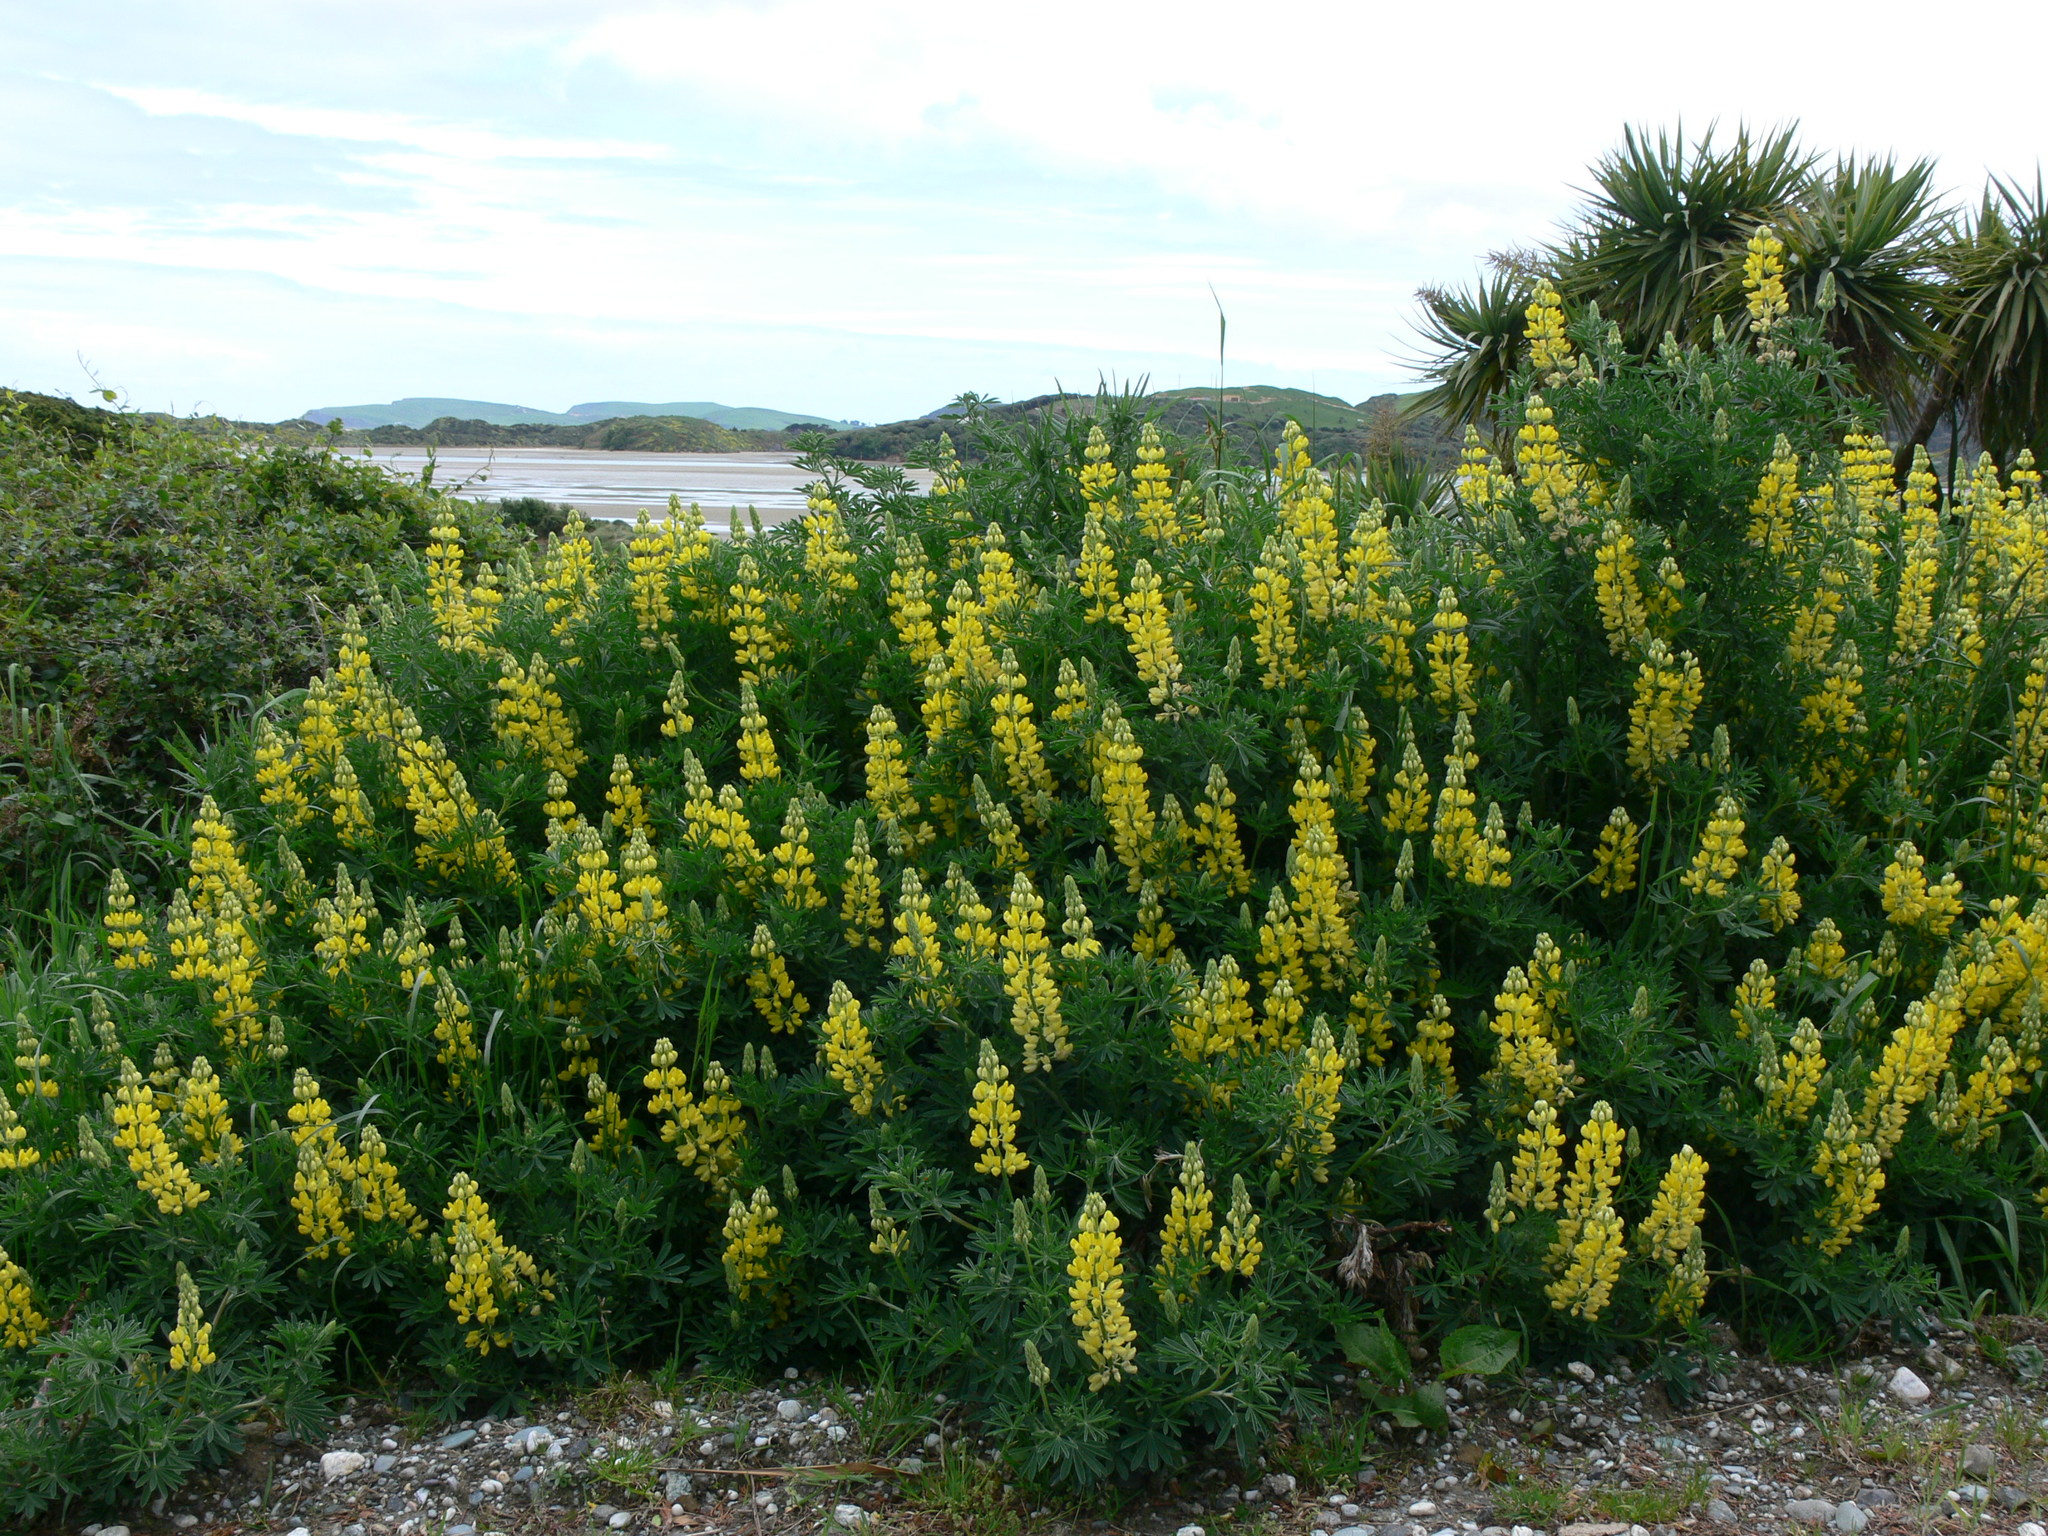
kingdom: Plantae
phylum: Tracheophyta
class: Magnoliopsida
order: Fabales
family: Fabaceae
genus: Lupinus
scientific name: Lupinus arboreus
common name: Yellow bush lupine
